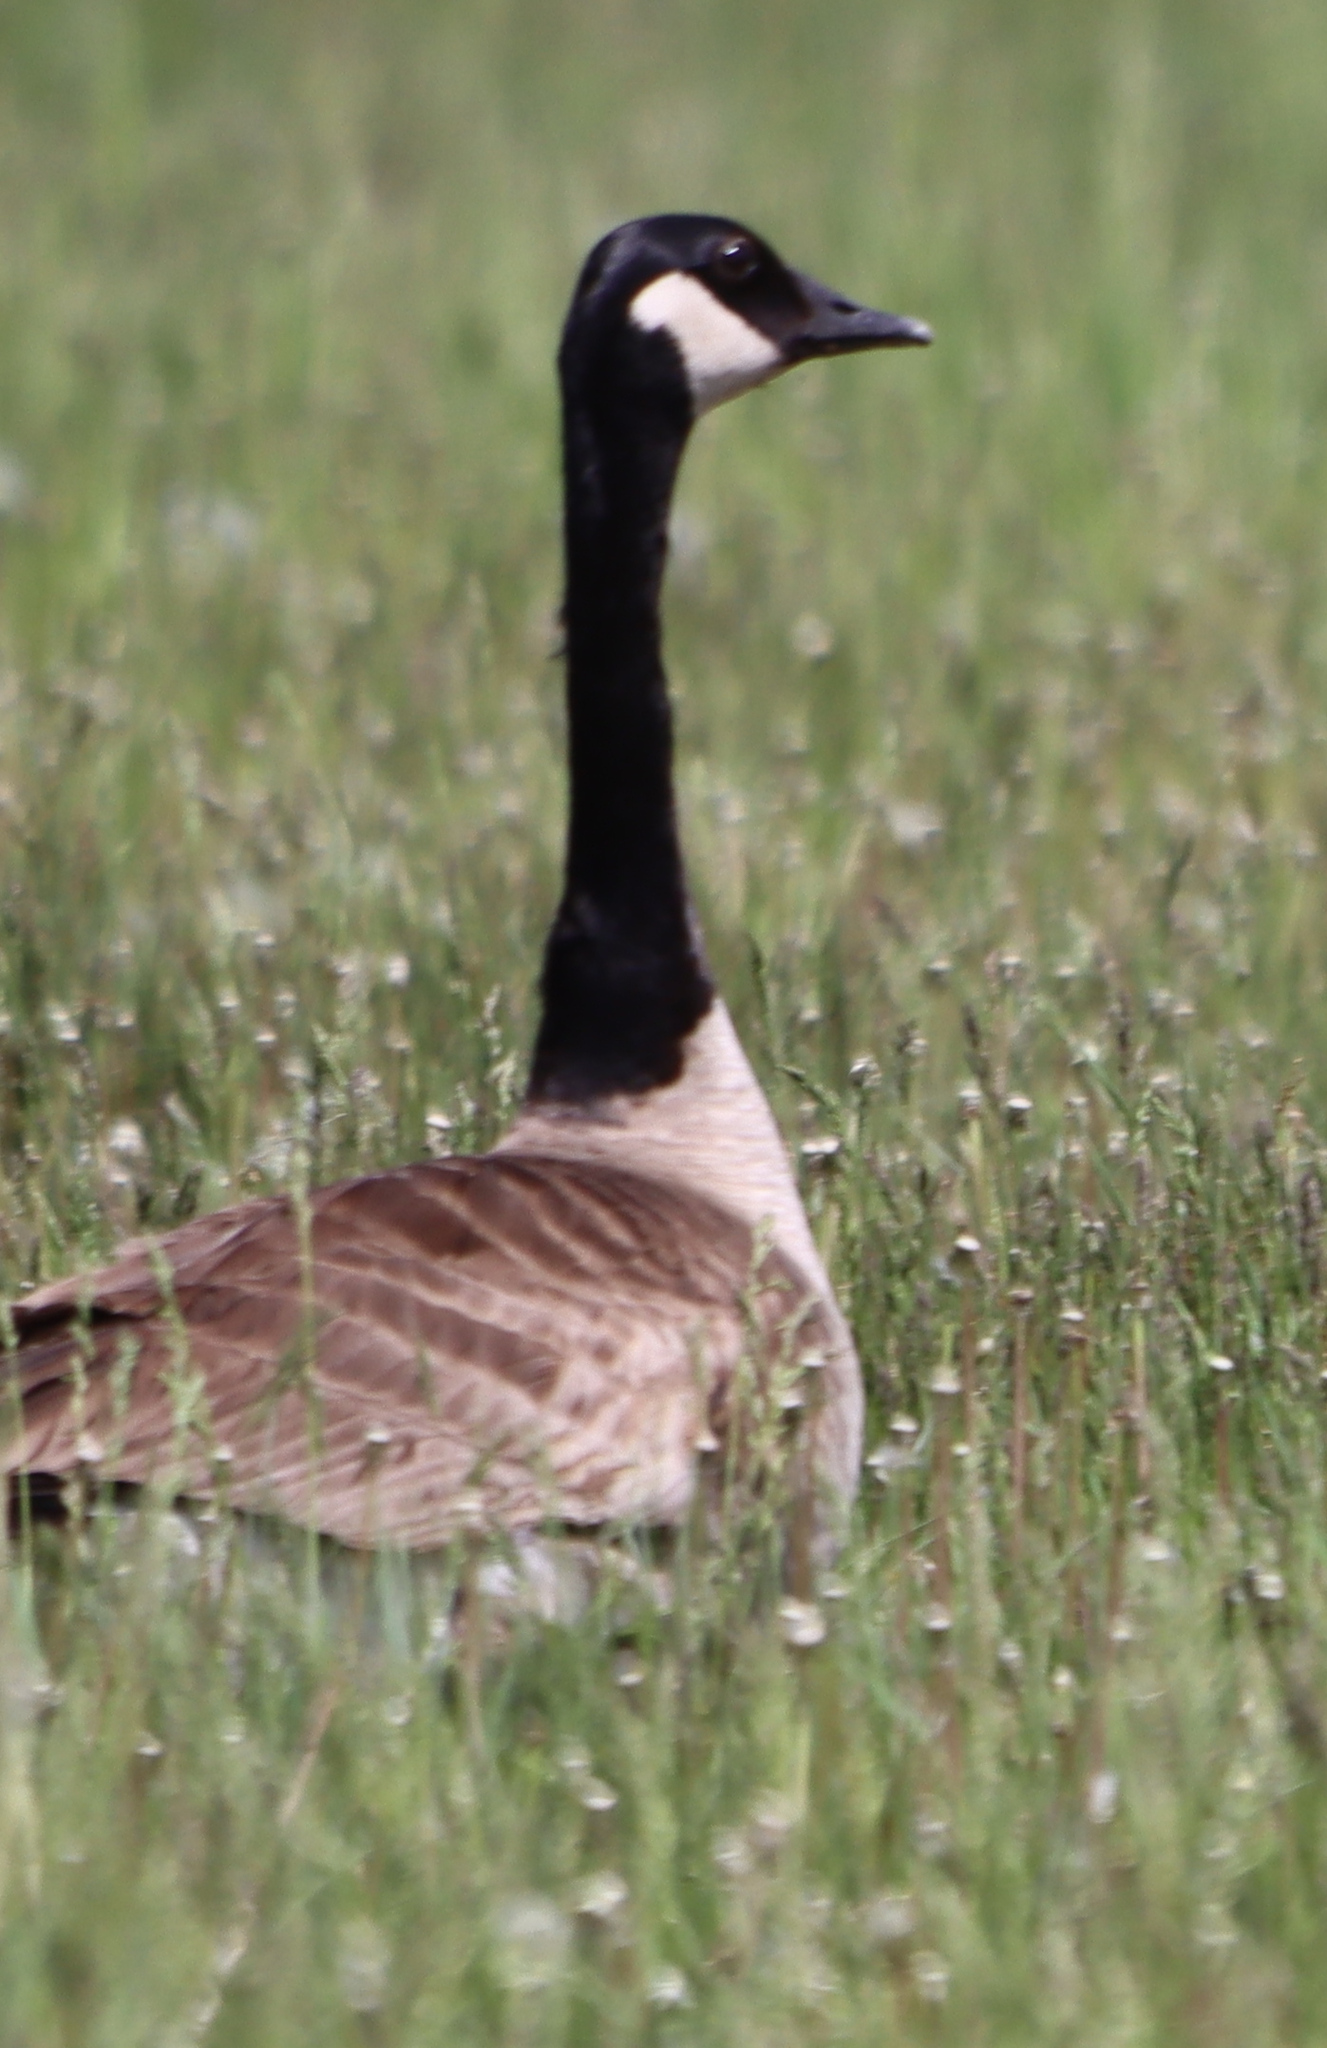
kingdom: Animalia
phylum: Chordata
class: Aves
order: Anseriformes
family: Anatidae
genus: Branta
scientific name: Branta canadensis
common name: Canada goose
